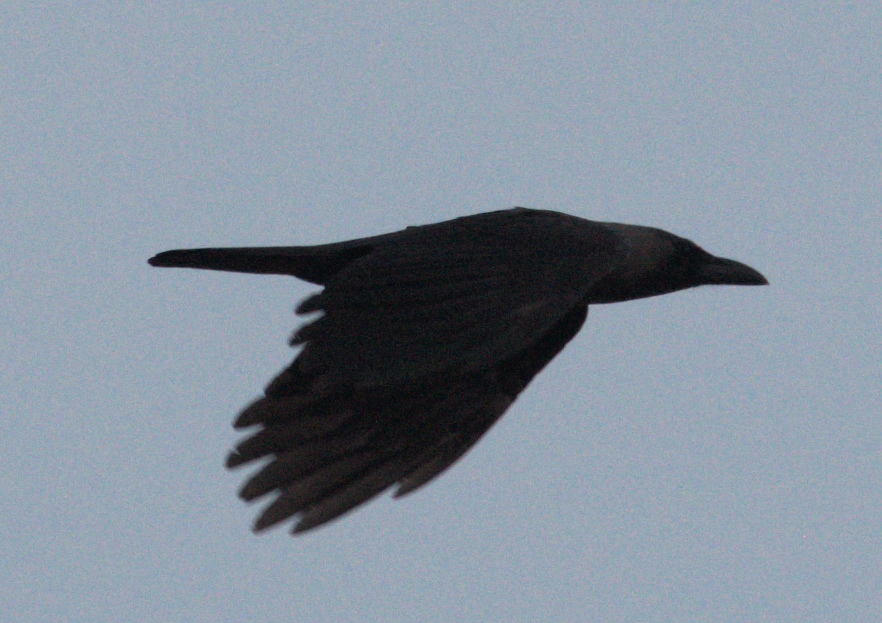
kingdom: Animalia
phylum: Chordata
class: Aves
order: Passeriformes
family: Corvidae
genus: Corvus
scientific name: Corvus splendens
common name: House crow
